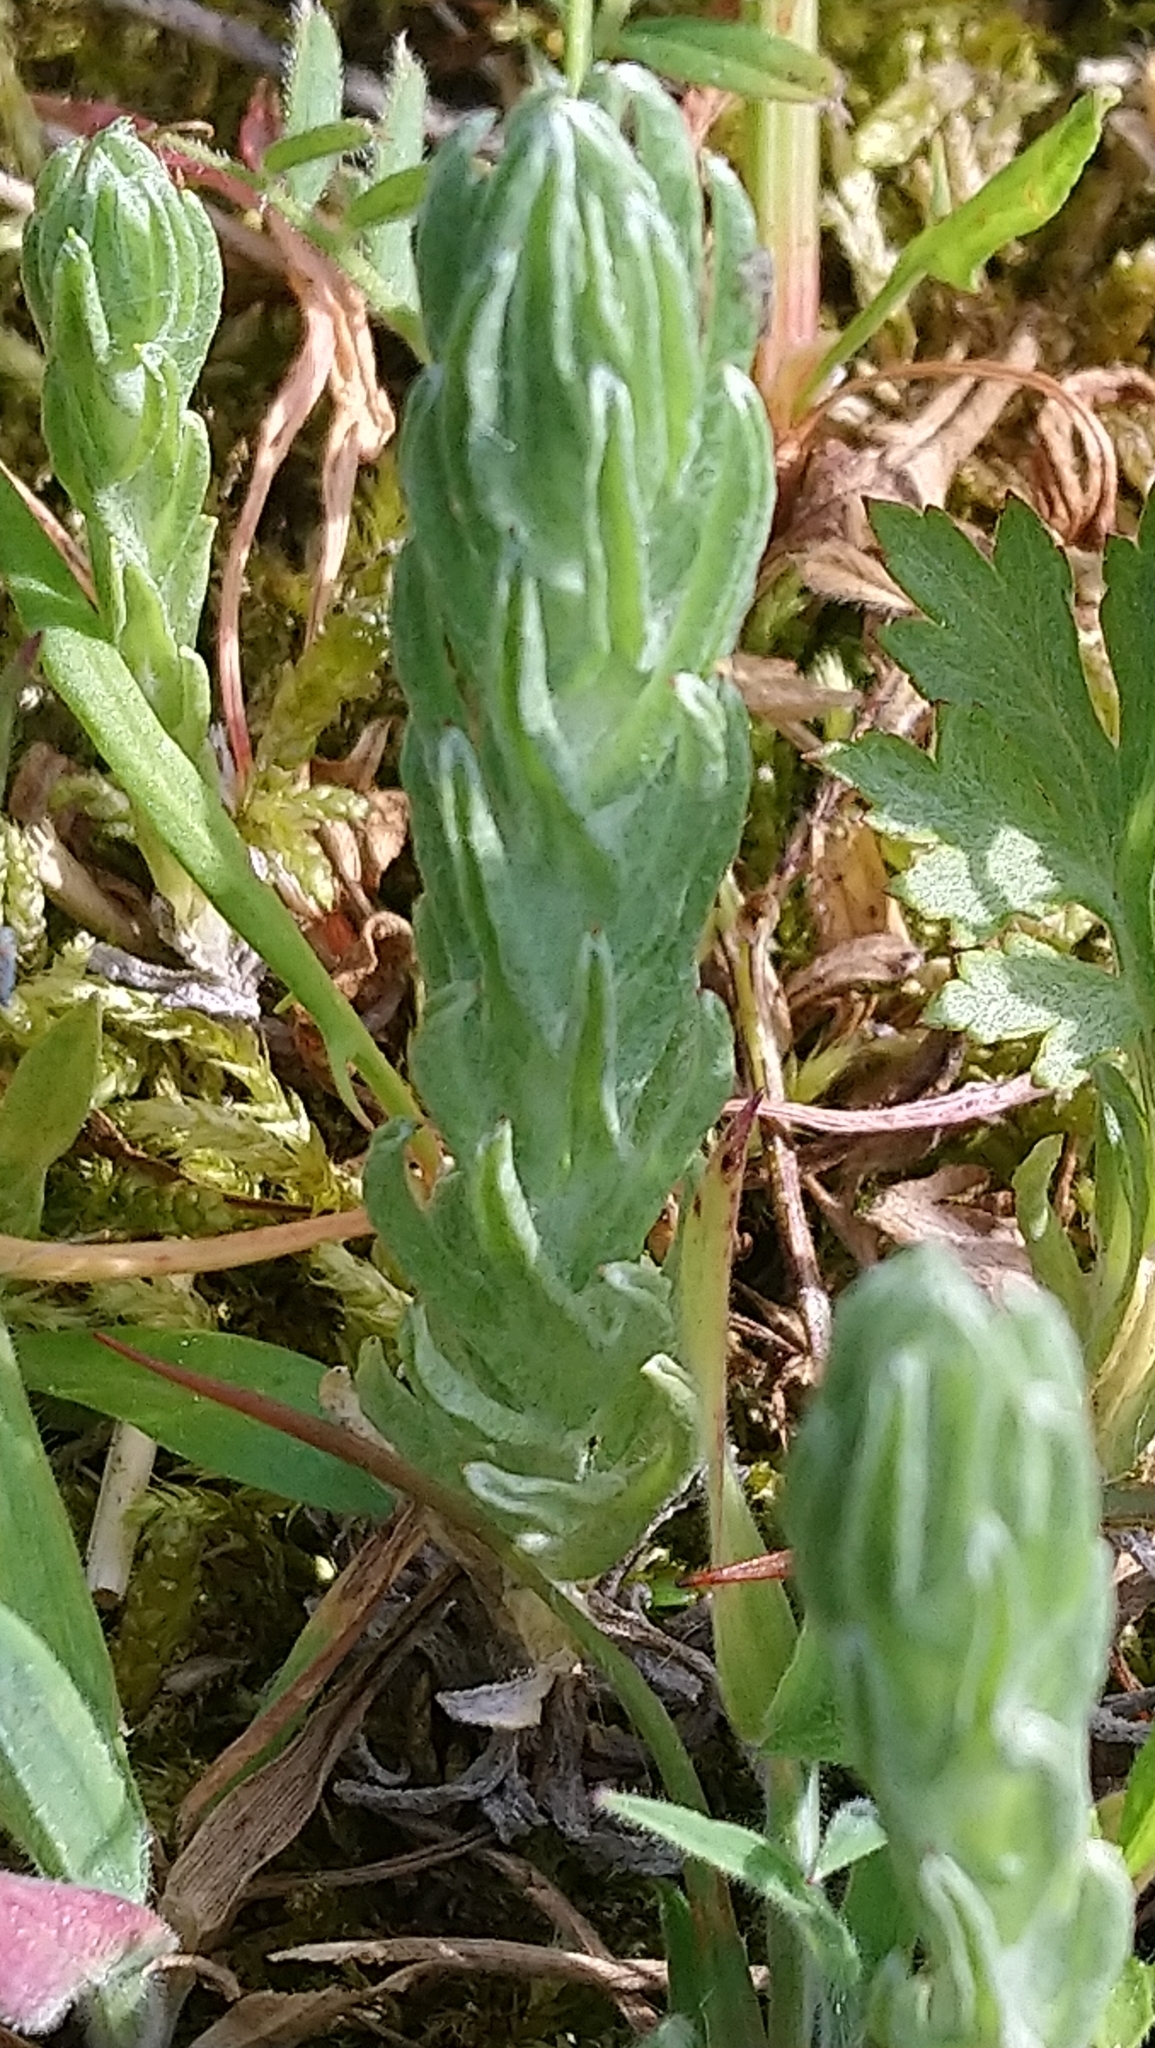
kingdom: Plantae
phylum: Tracheophyta
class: Magnoliopsida
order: Asterales
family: Asteraceae
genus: Filago
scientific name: Filago germanica
